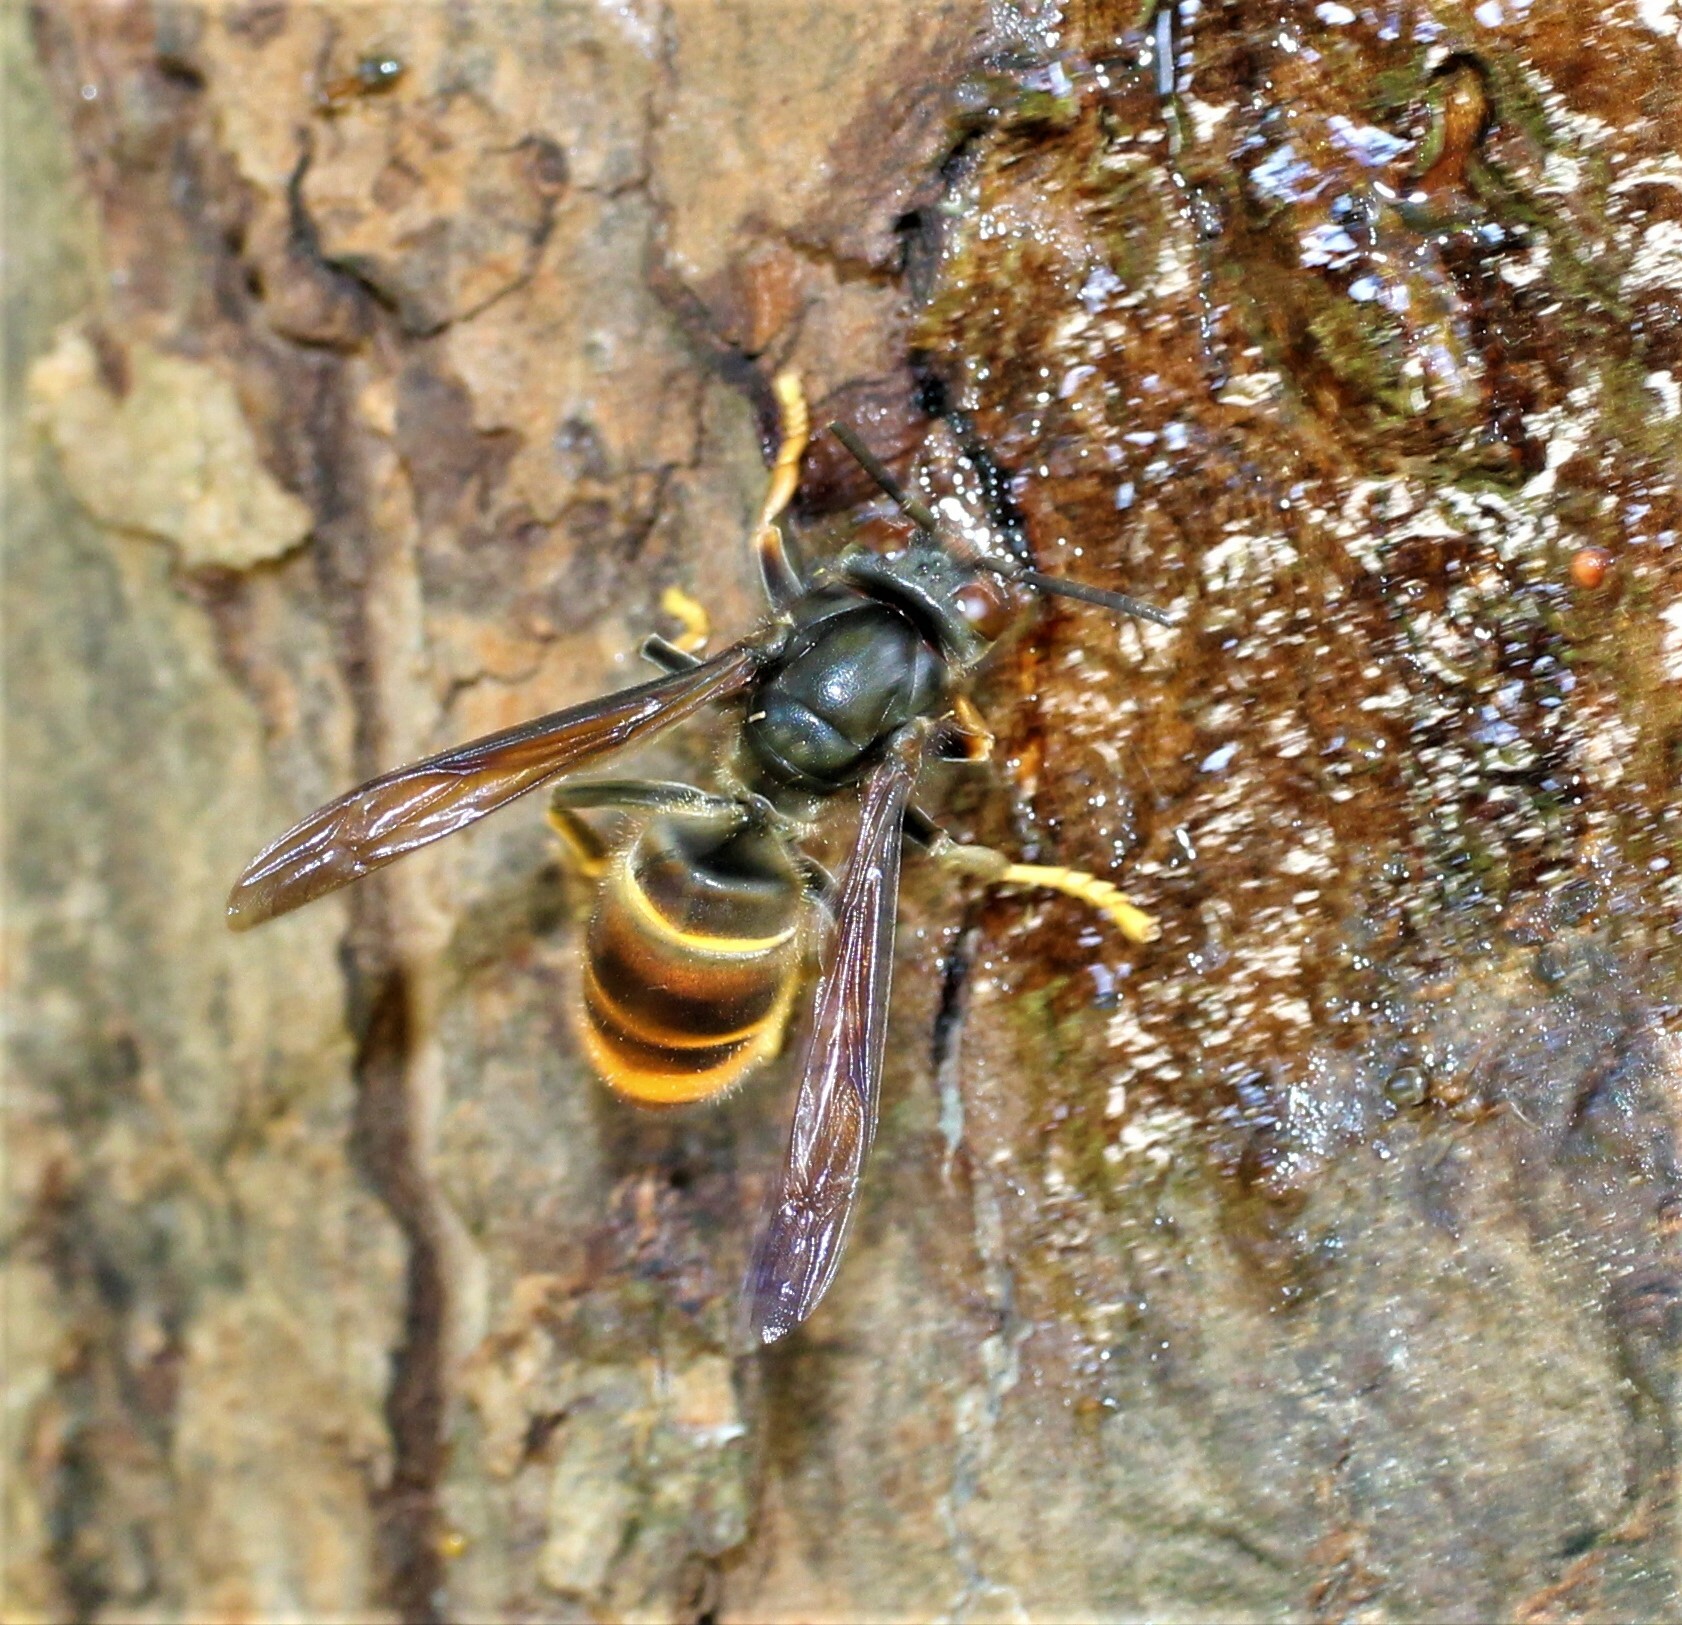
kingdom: Animalia
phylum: Arthropoda
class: Insecta
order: Hymenoptera
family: Vespidae
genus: Vespa
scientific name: Vespa velutina
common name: Asian hornet
